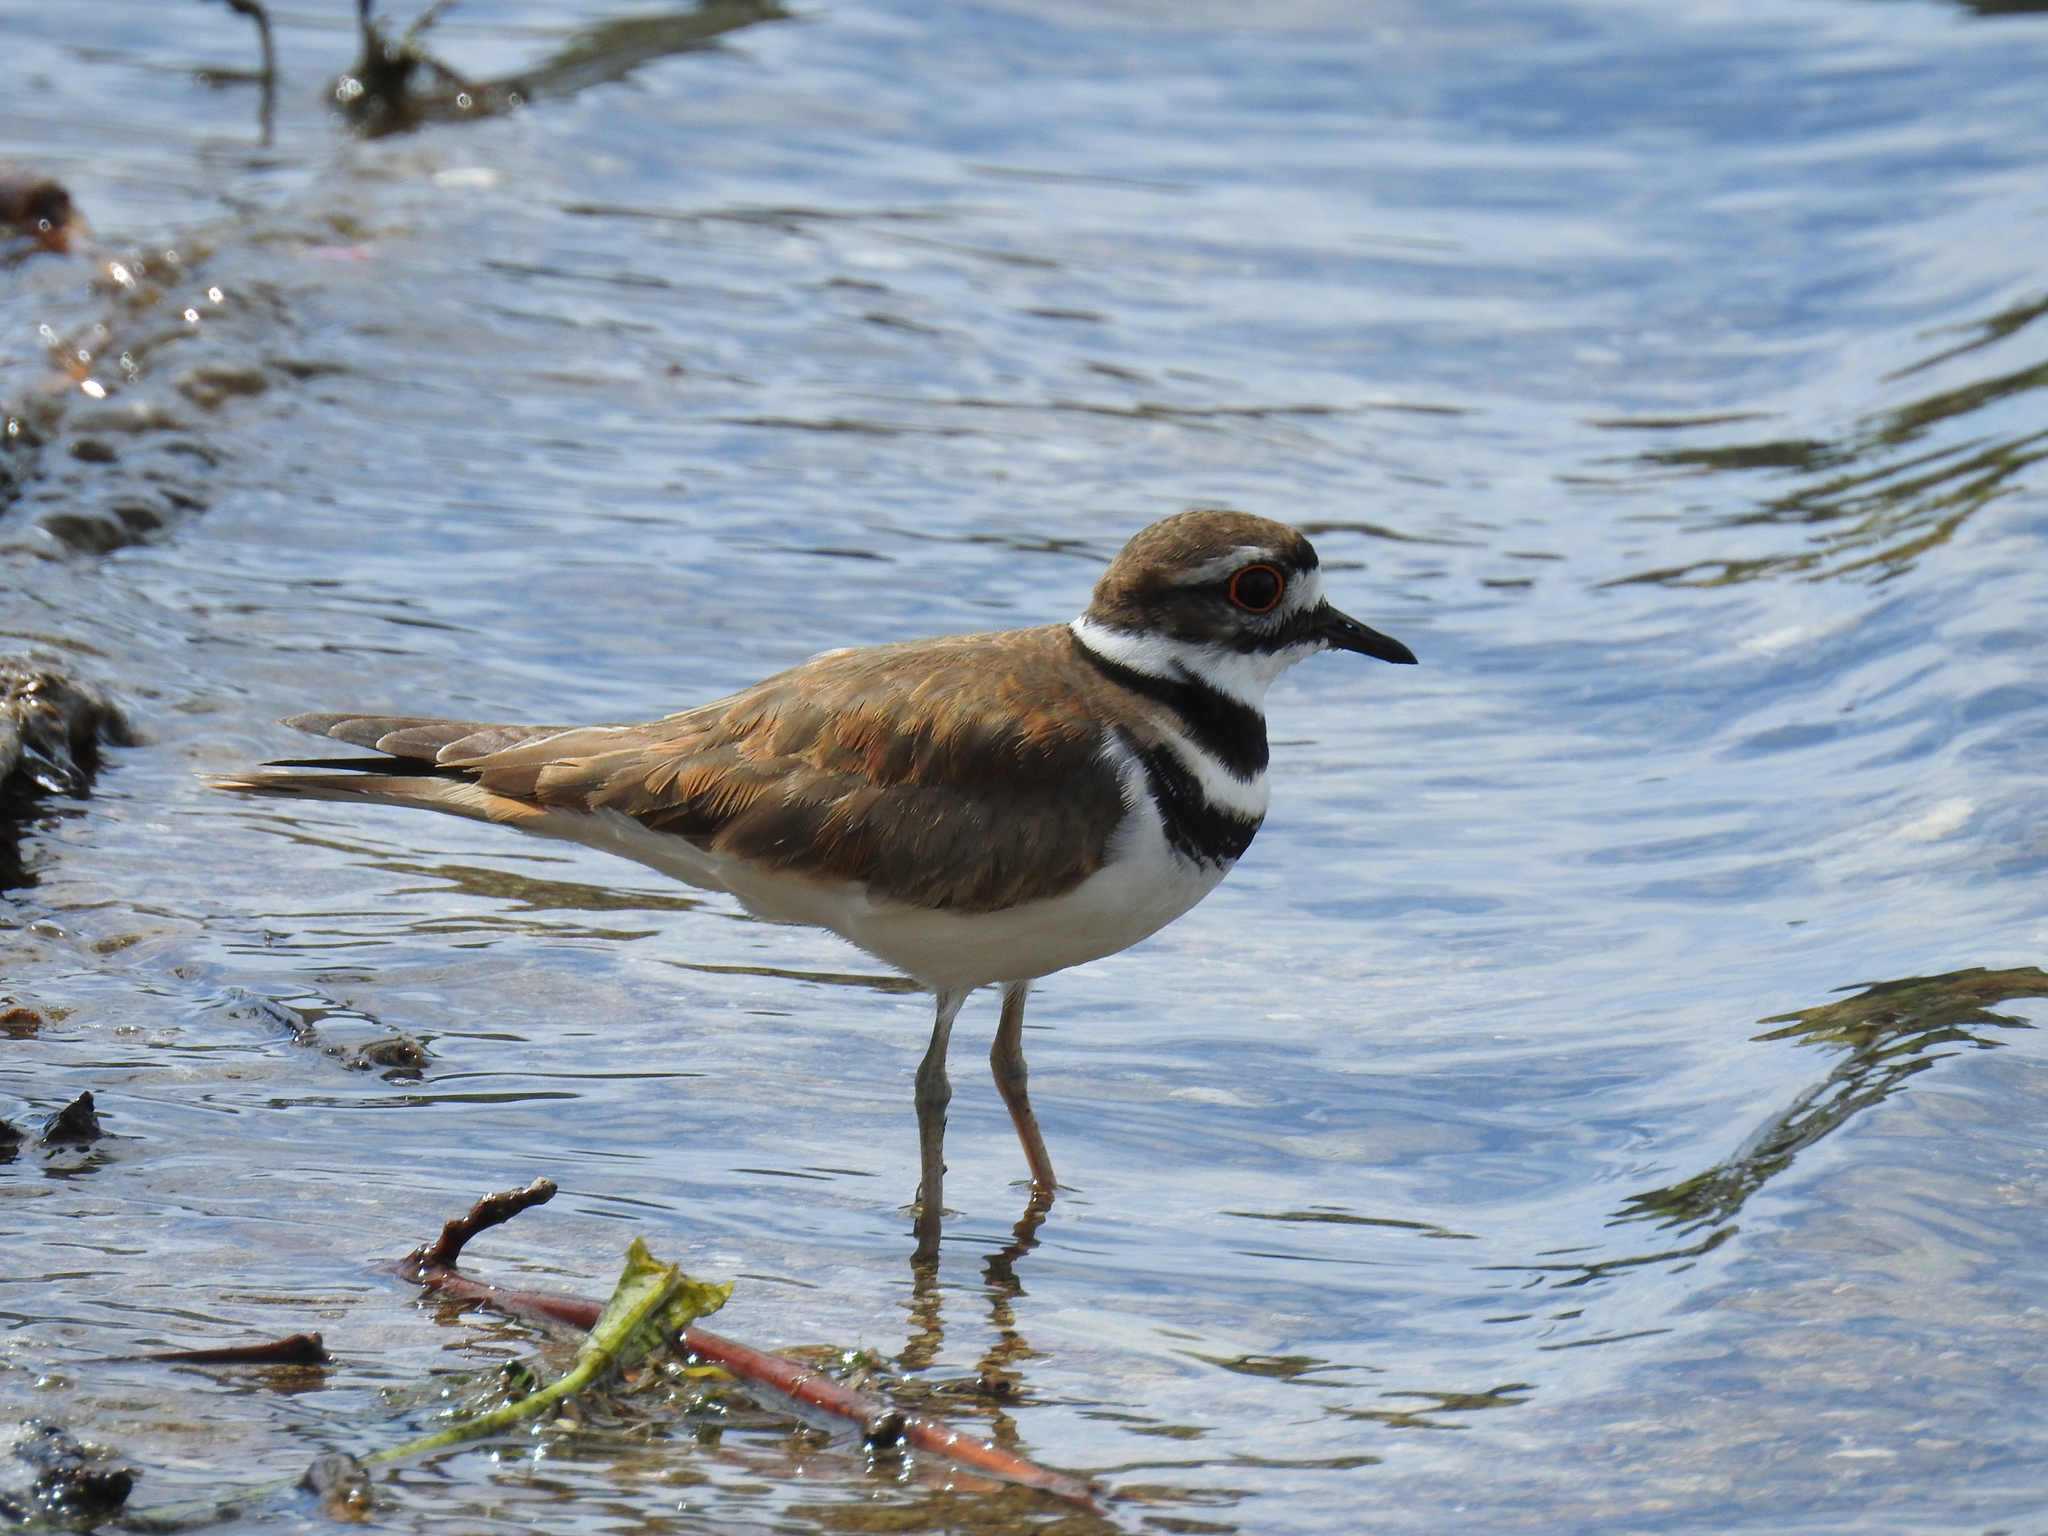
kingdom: Animalia
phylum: Chordata
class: Aves
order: Charadriiformes
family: Charadriidae
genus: Charadrius
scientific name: Charadrius vociferus
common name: Killdeer
